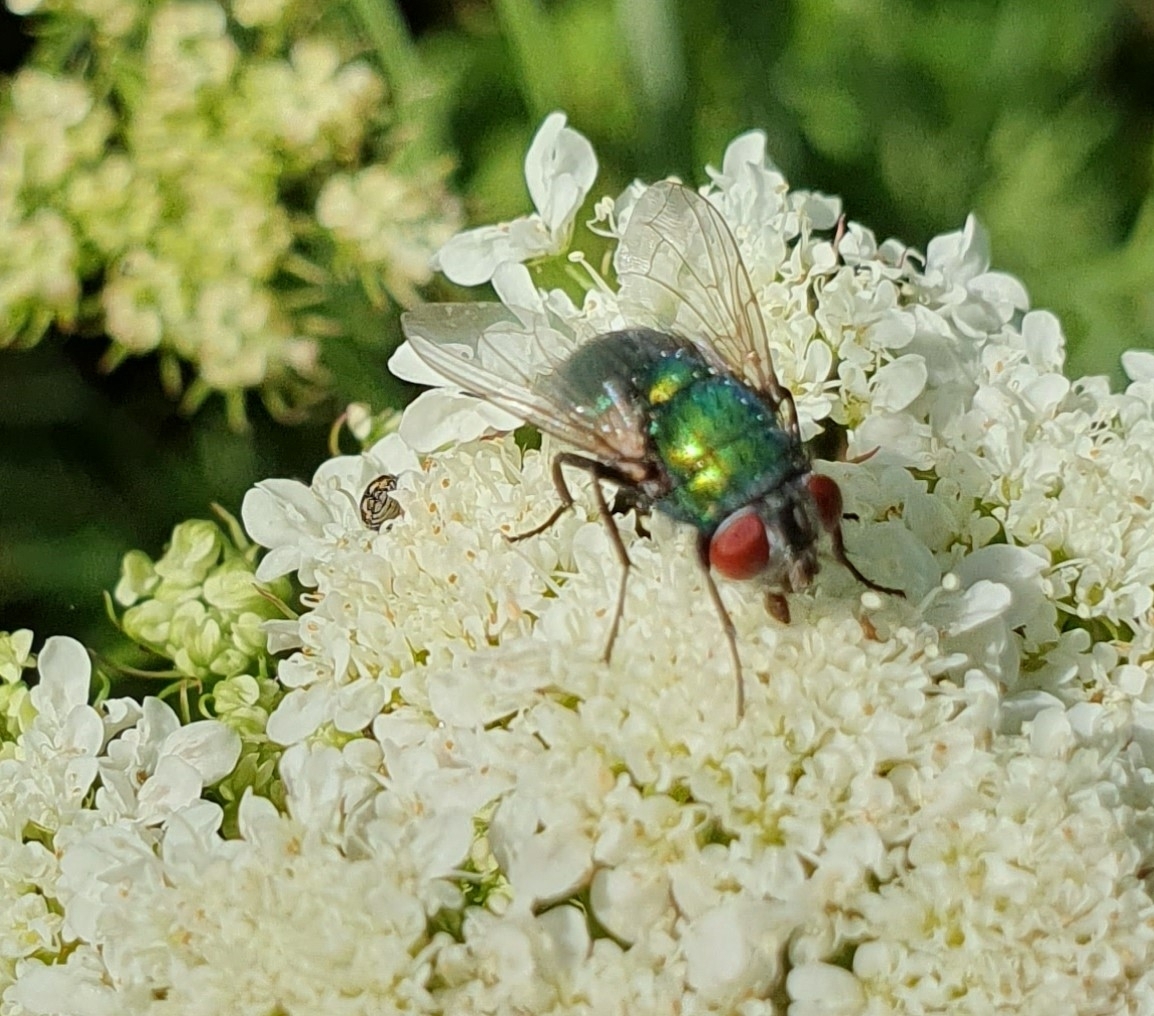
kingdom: Animalia
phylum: Arthropoda
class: Insecta
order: Diptera
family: Calliphoridae
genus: Lucilia
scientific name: Lucilia
